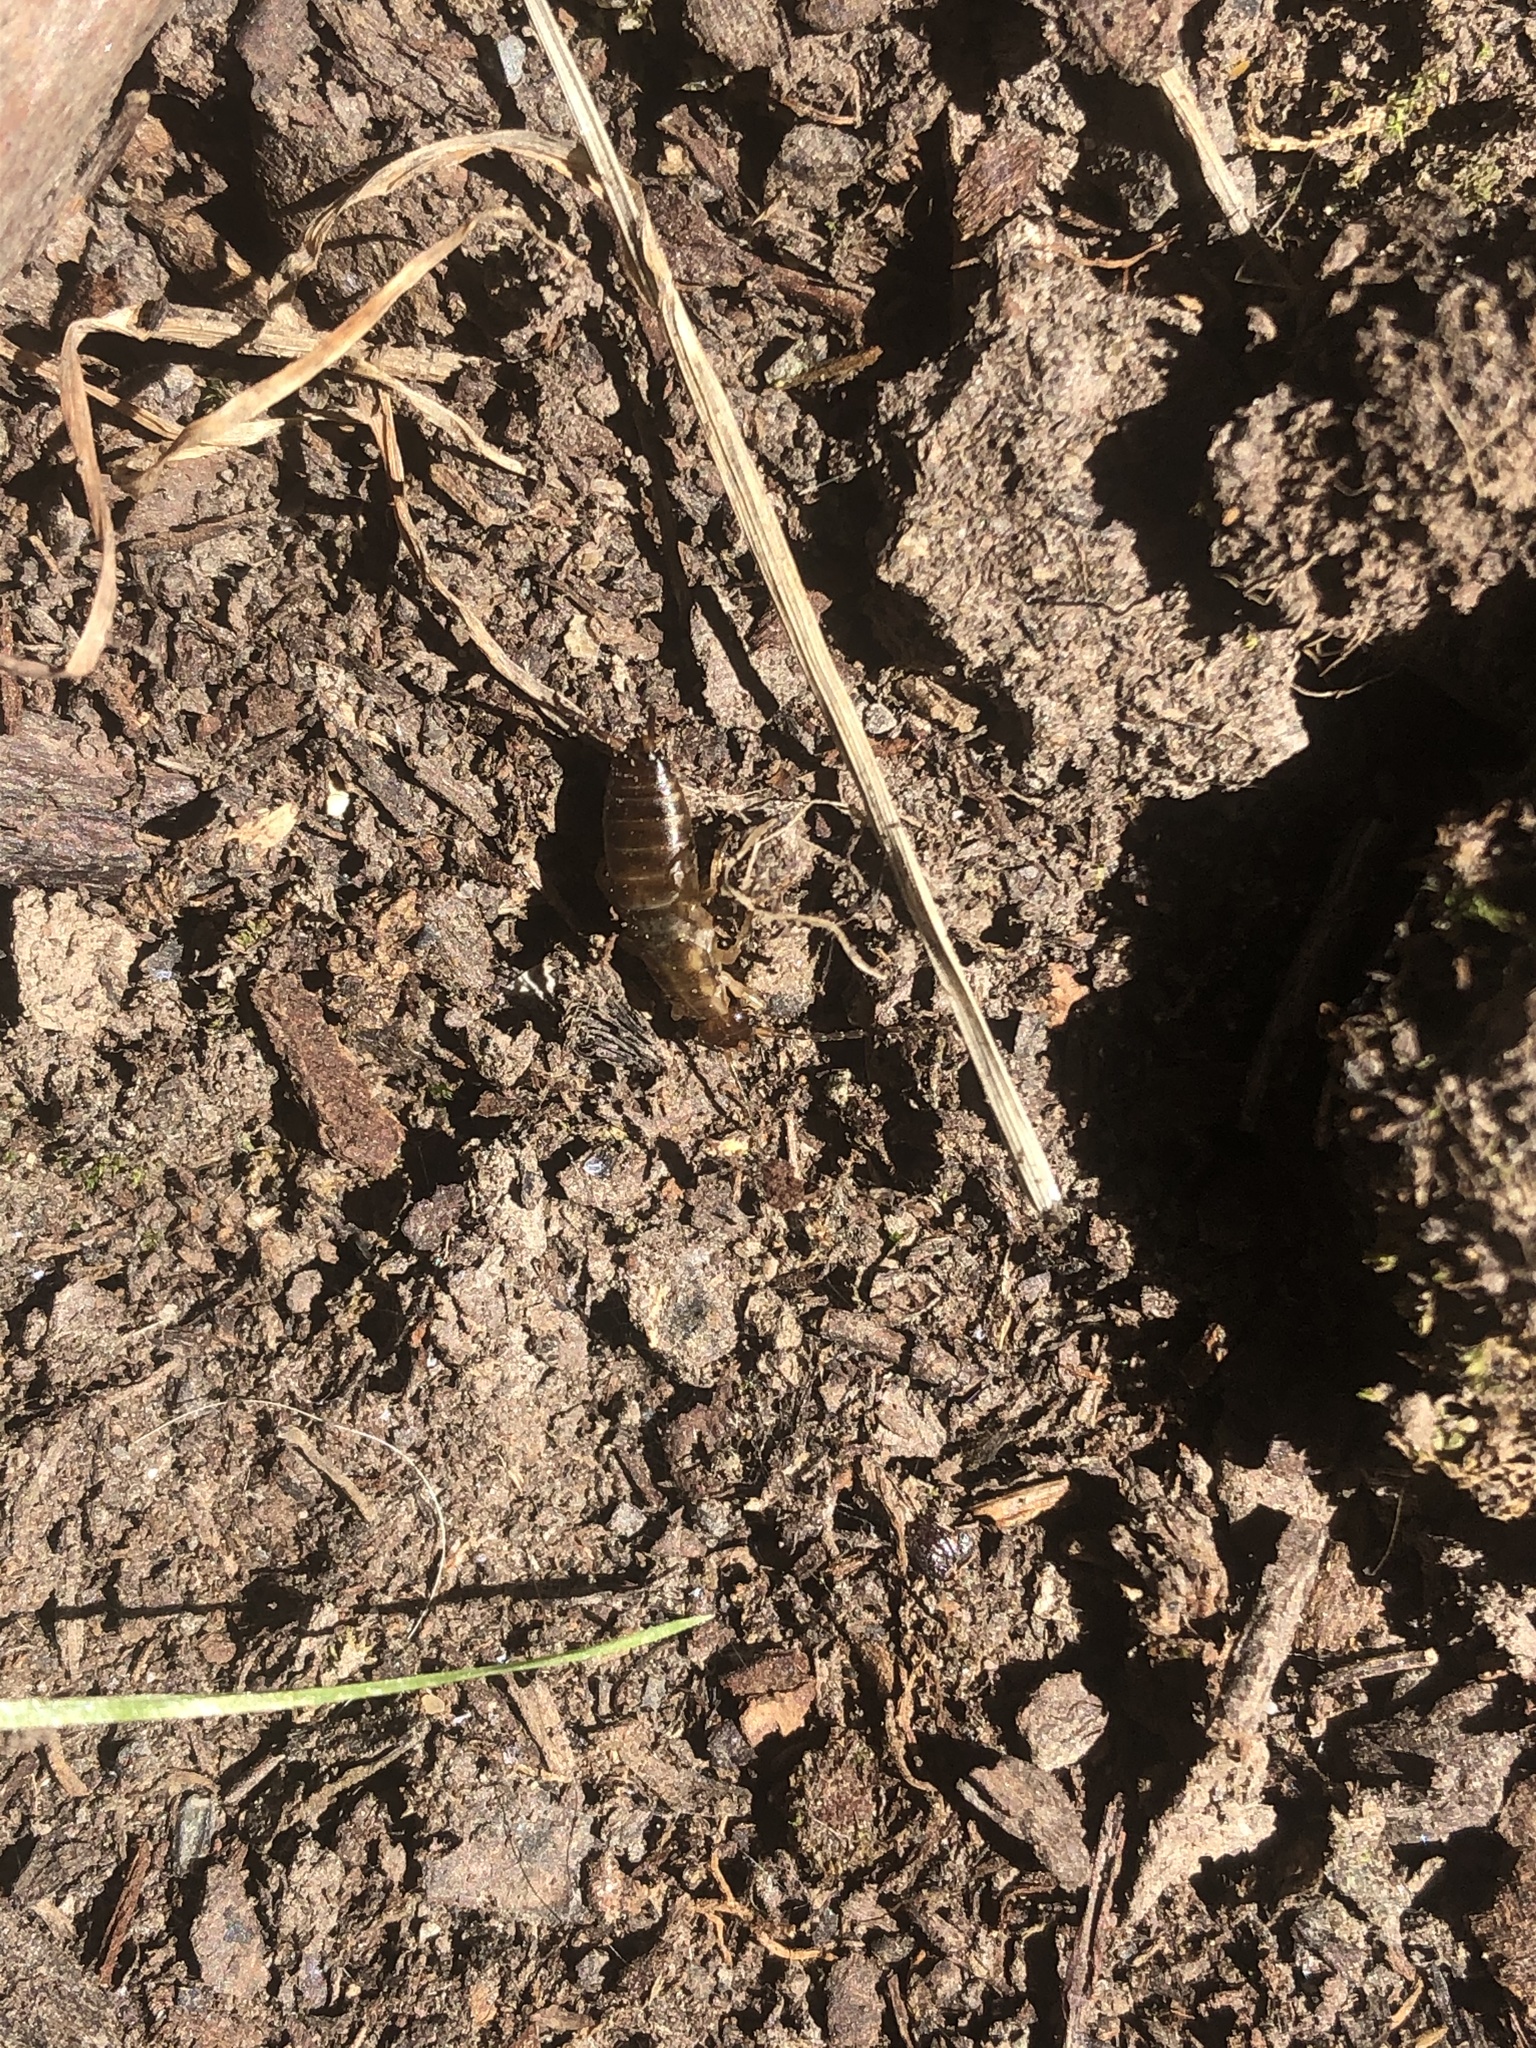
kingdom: Animalia
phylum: Arthropoda
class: Insecta
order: Dermaptera
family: Forficulidae
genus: Forficula
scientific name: Forficula dentata
